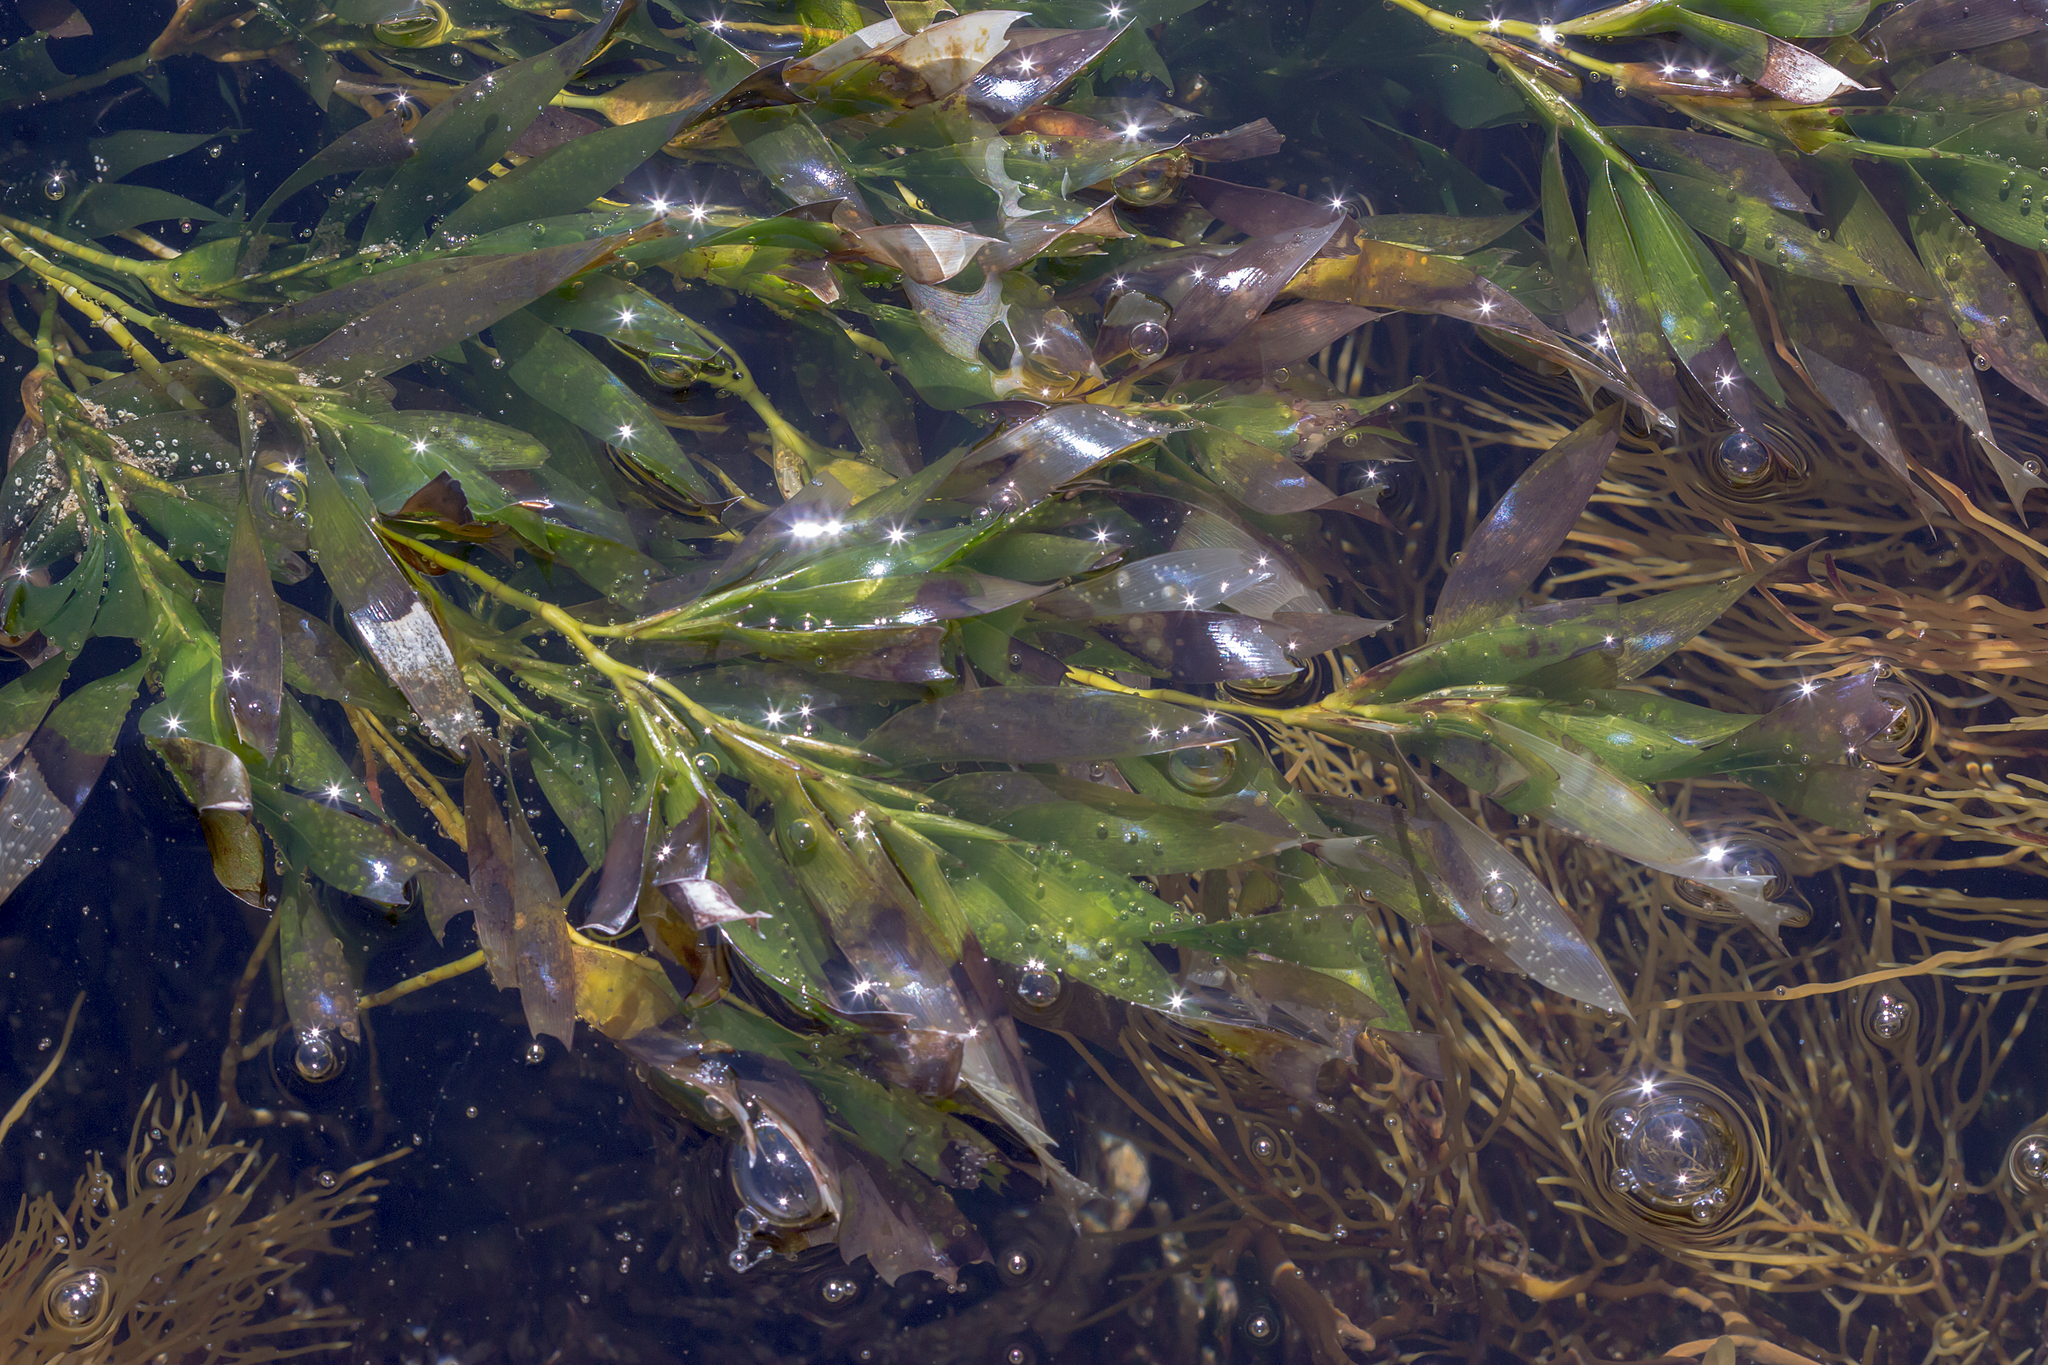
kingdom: Plantae
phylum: Tracheophyta
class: Liliopsida
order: Alismatales
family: Cymodoceaceae
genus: Amphibolis
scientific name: Amphibolis antarctica
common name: Species code: aa
